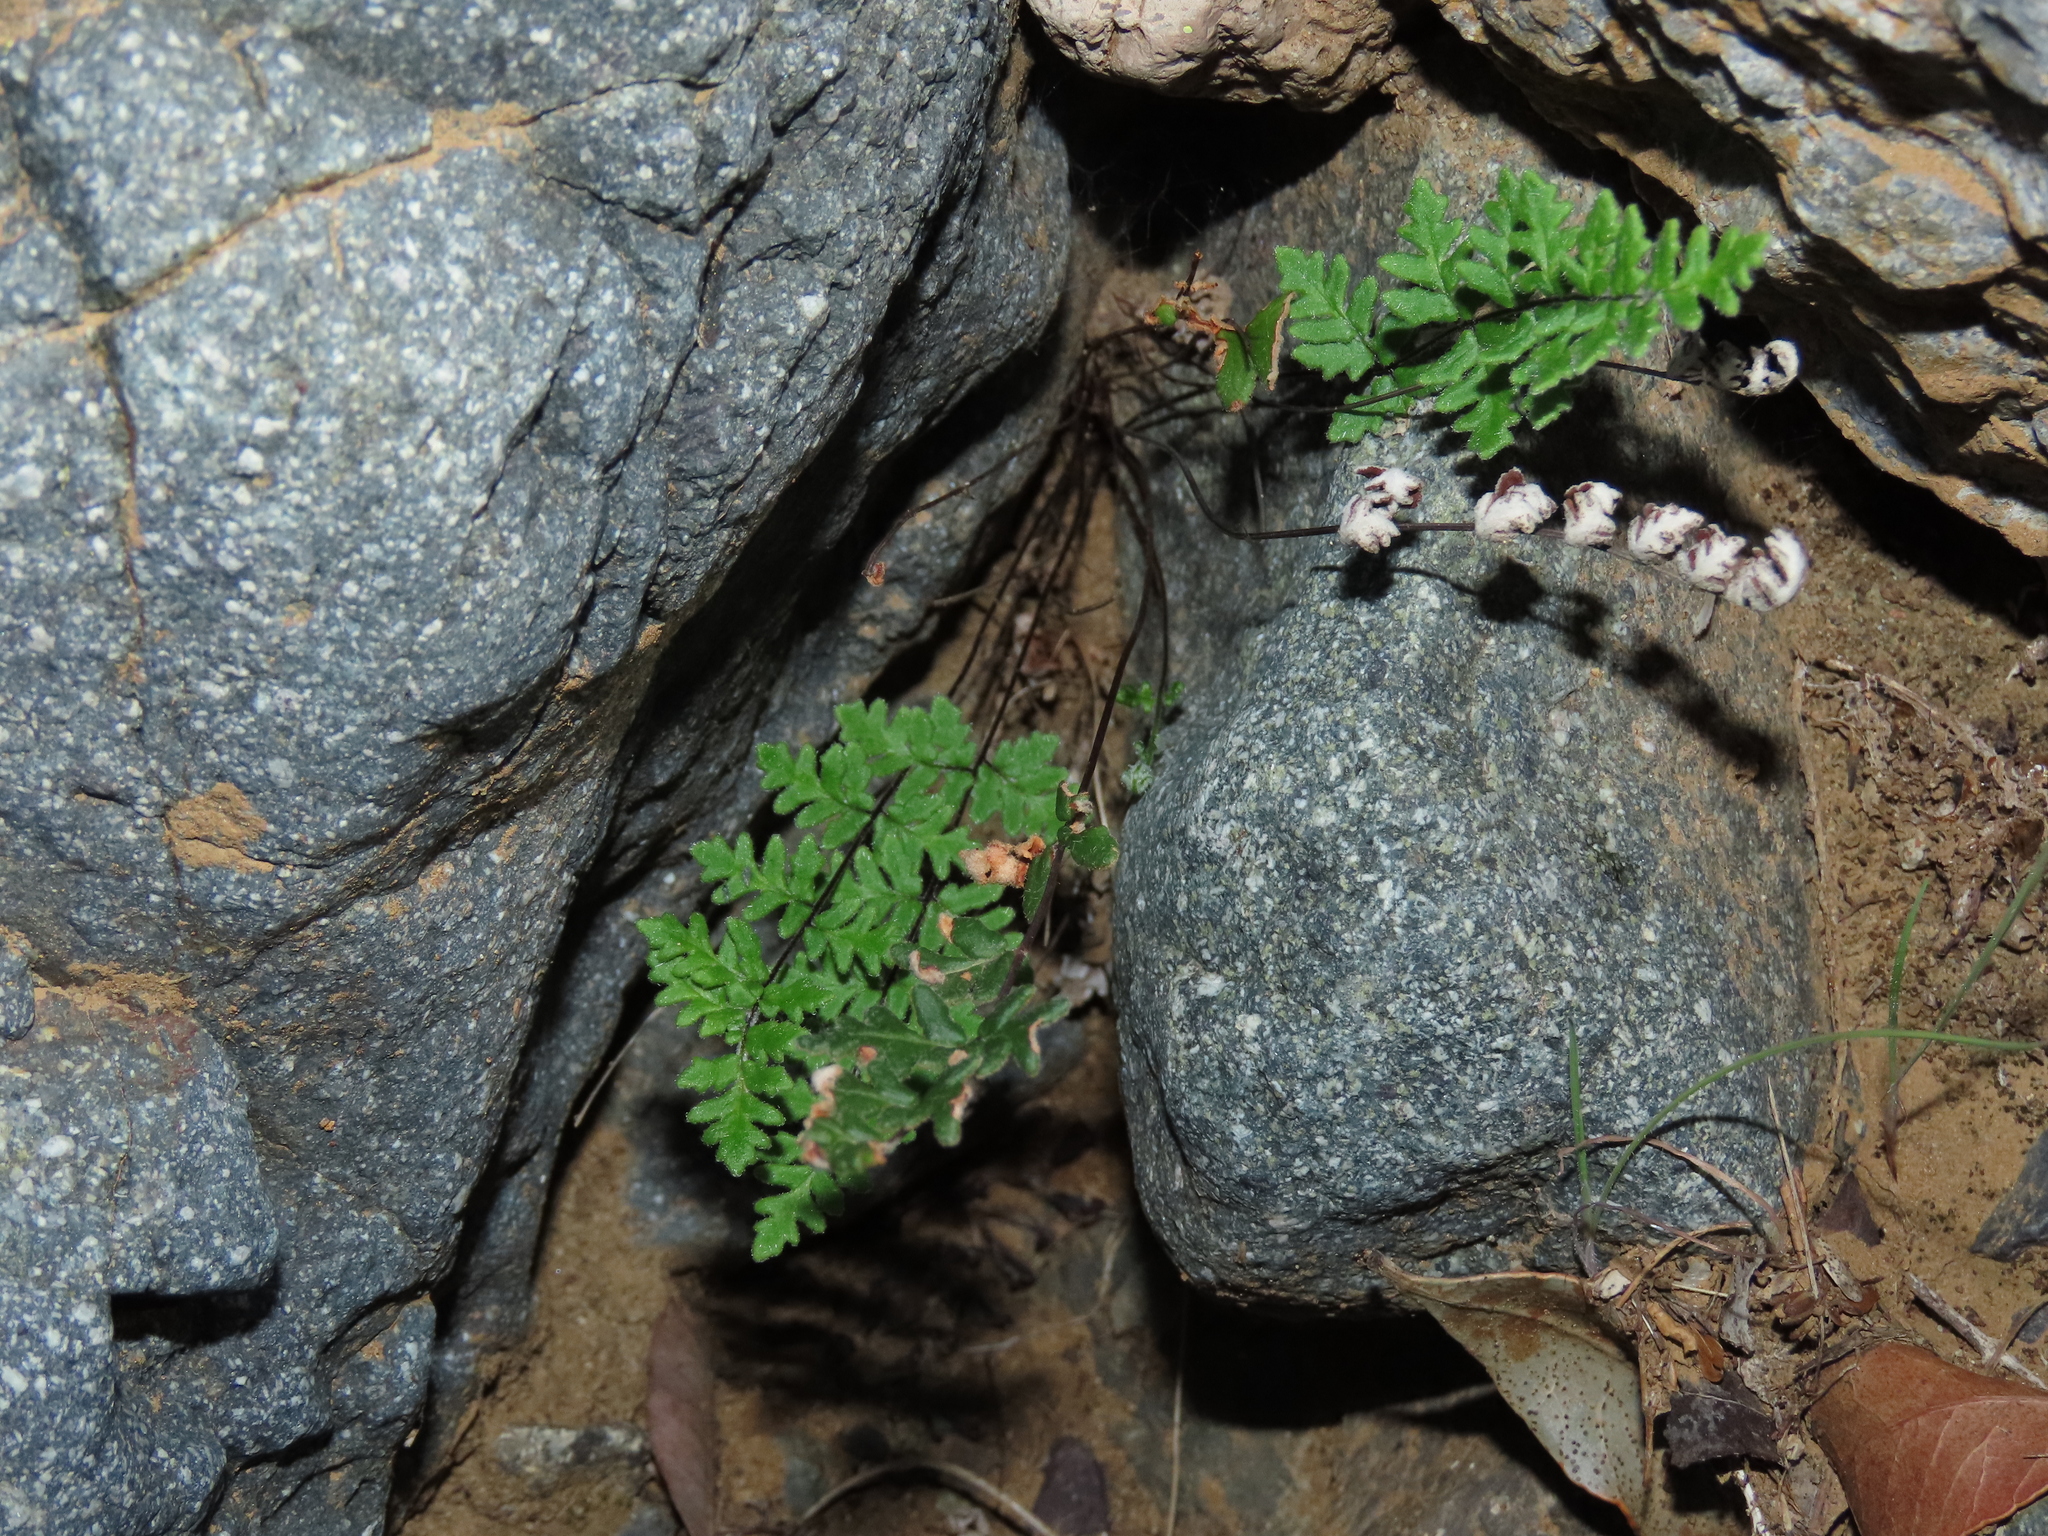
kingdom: Plantae
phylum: Tracheophyta
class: Polypodiopsida
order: Polypodiales
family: Pteridaceae
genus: Cheilanthes
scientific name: Cheilanthes hypoleuca
